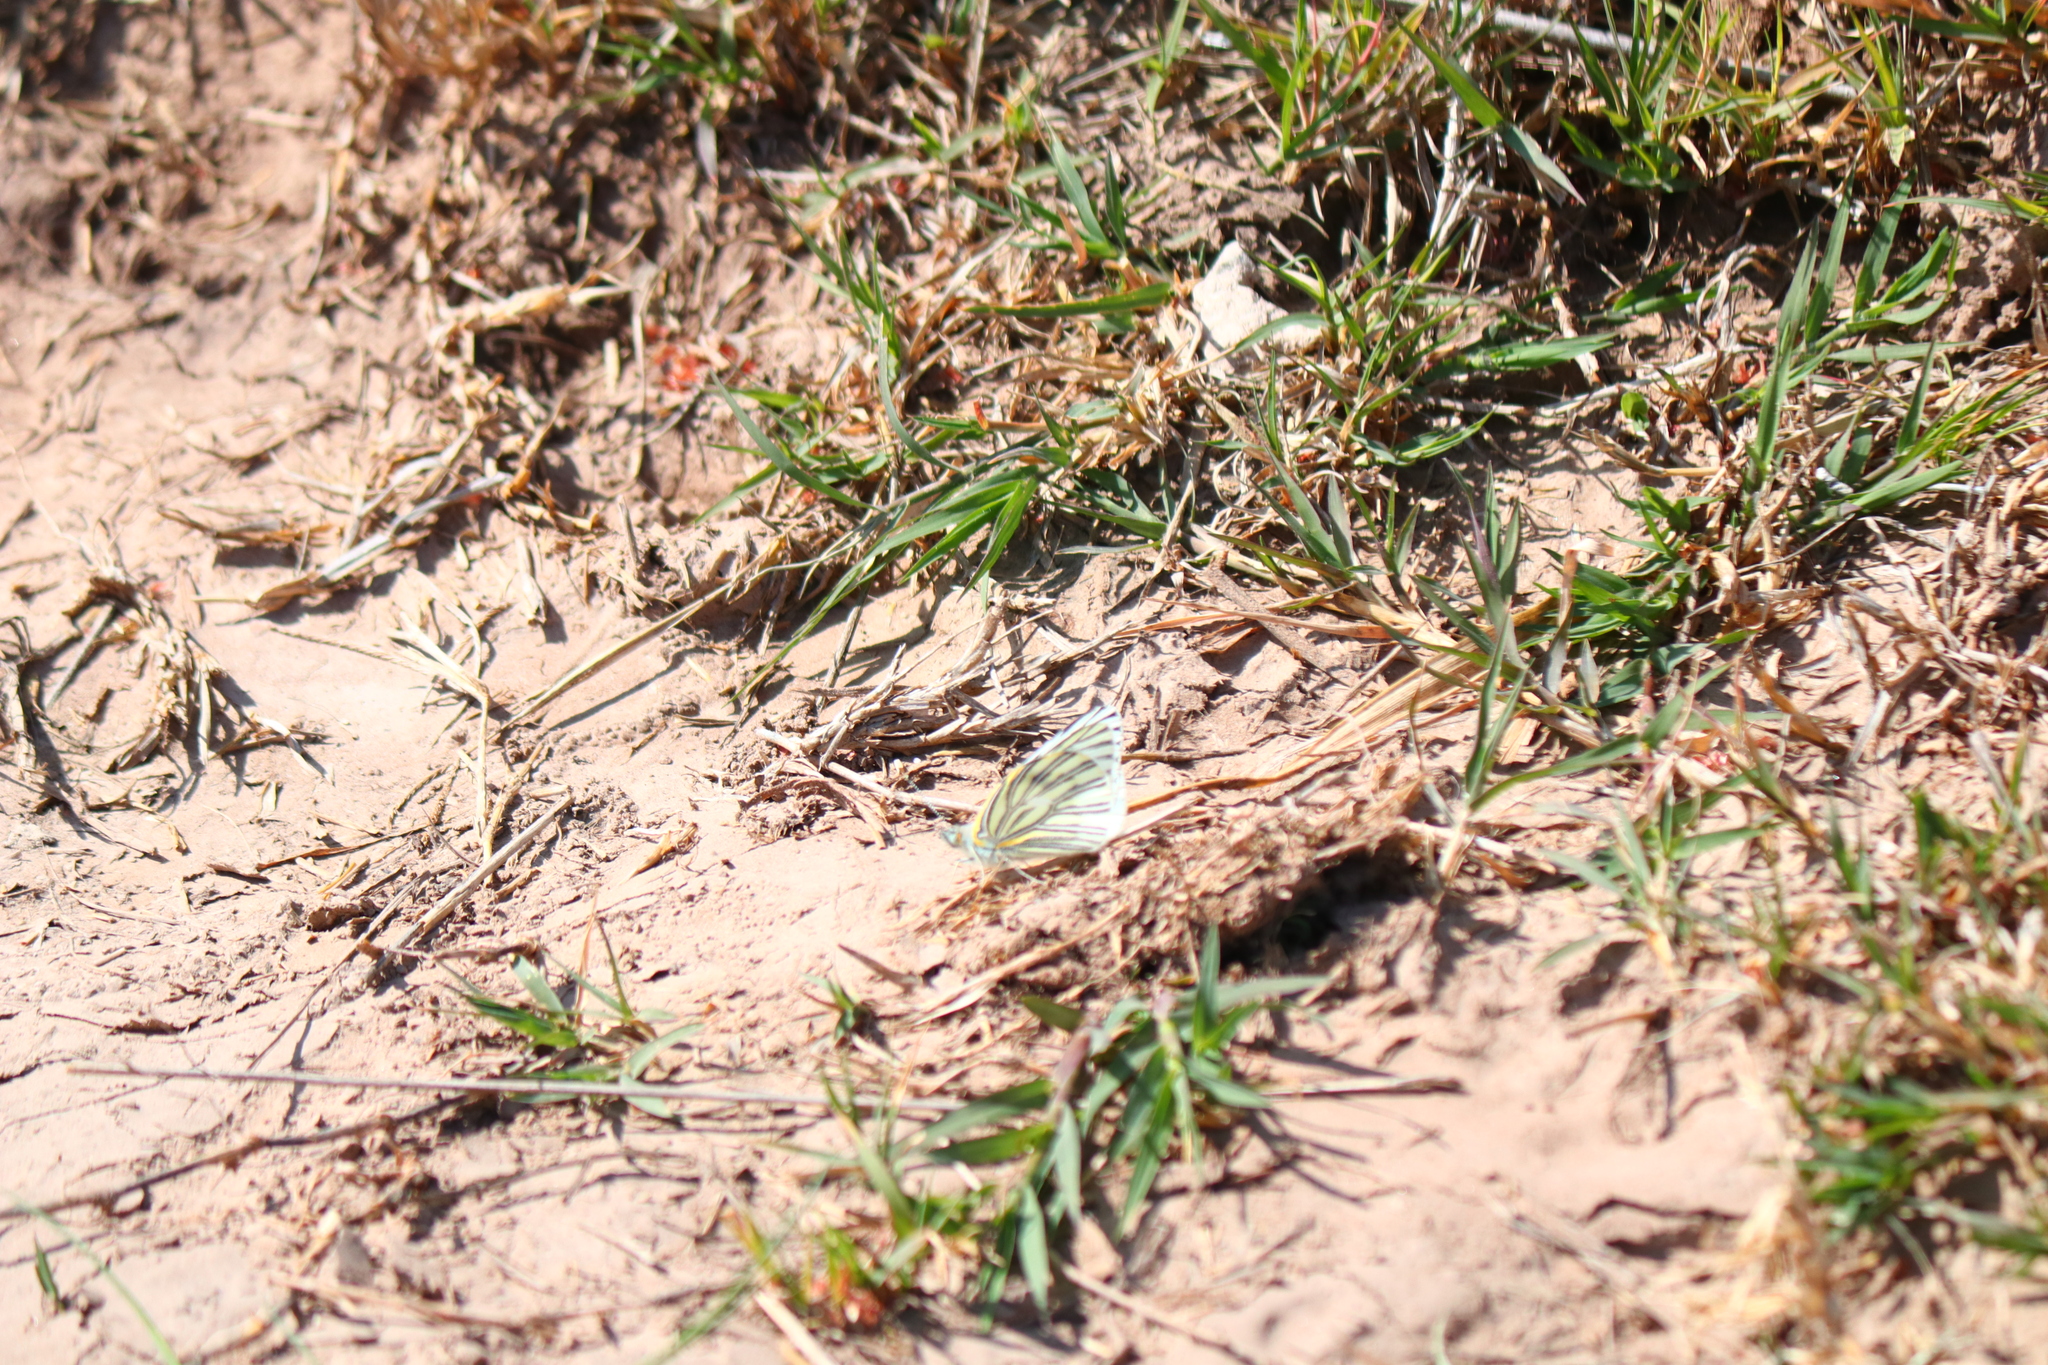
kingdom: Animalia
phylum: Arthropoda
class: Insecta
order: Lepidoptera
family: Pieridae
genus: Tatochila
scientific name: Tatochila autodice
